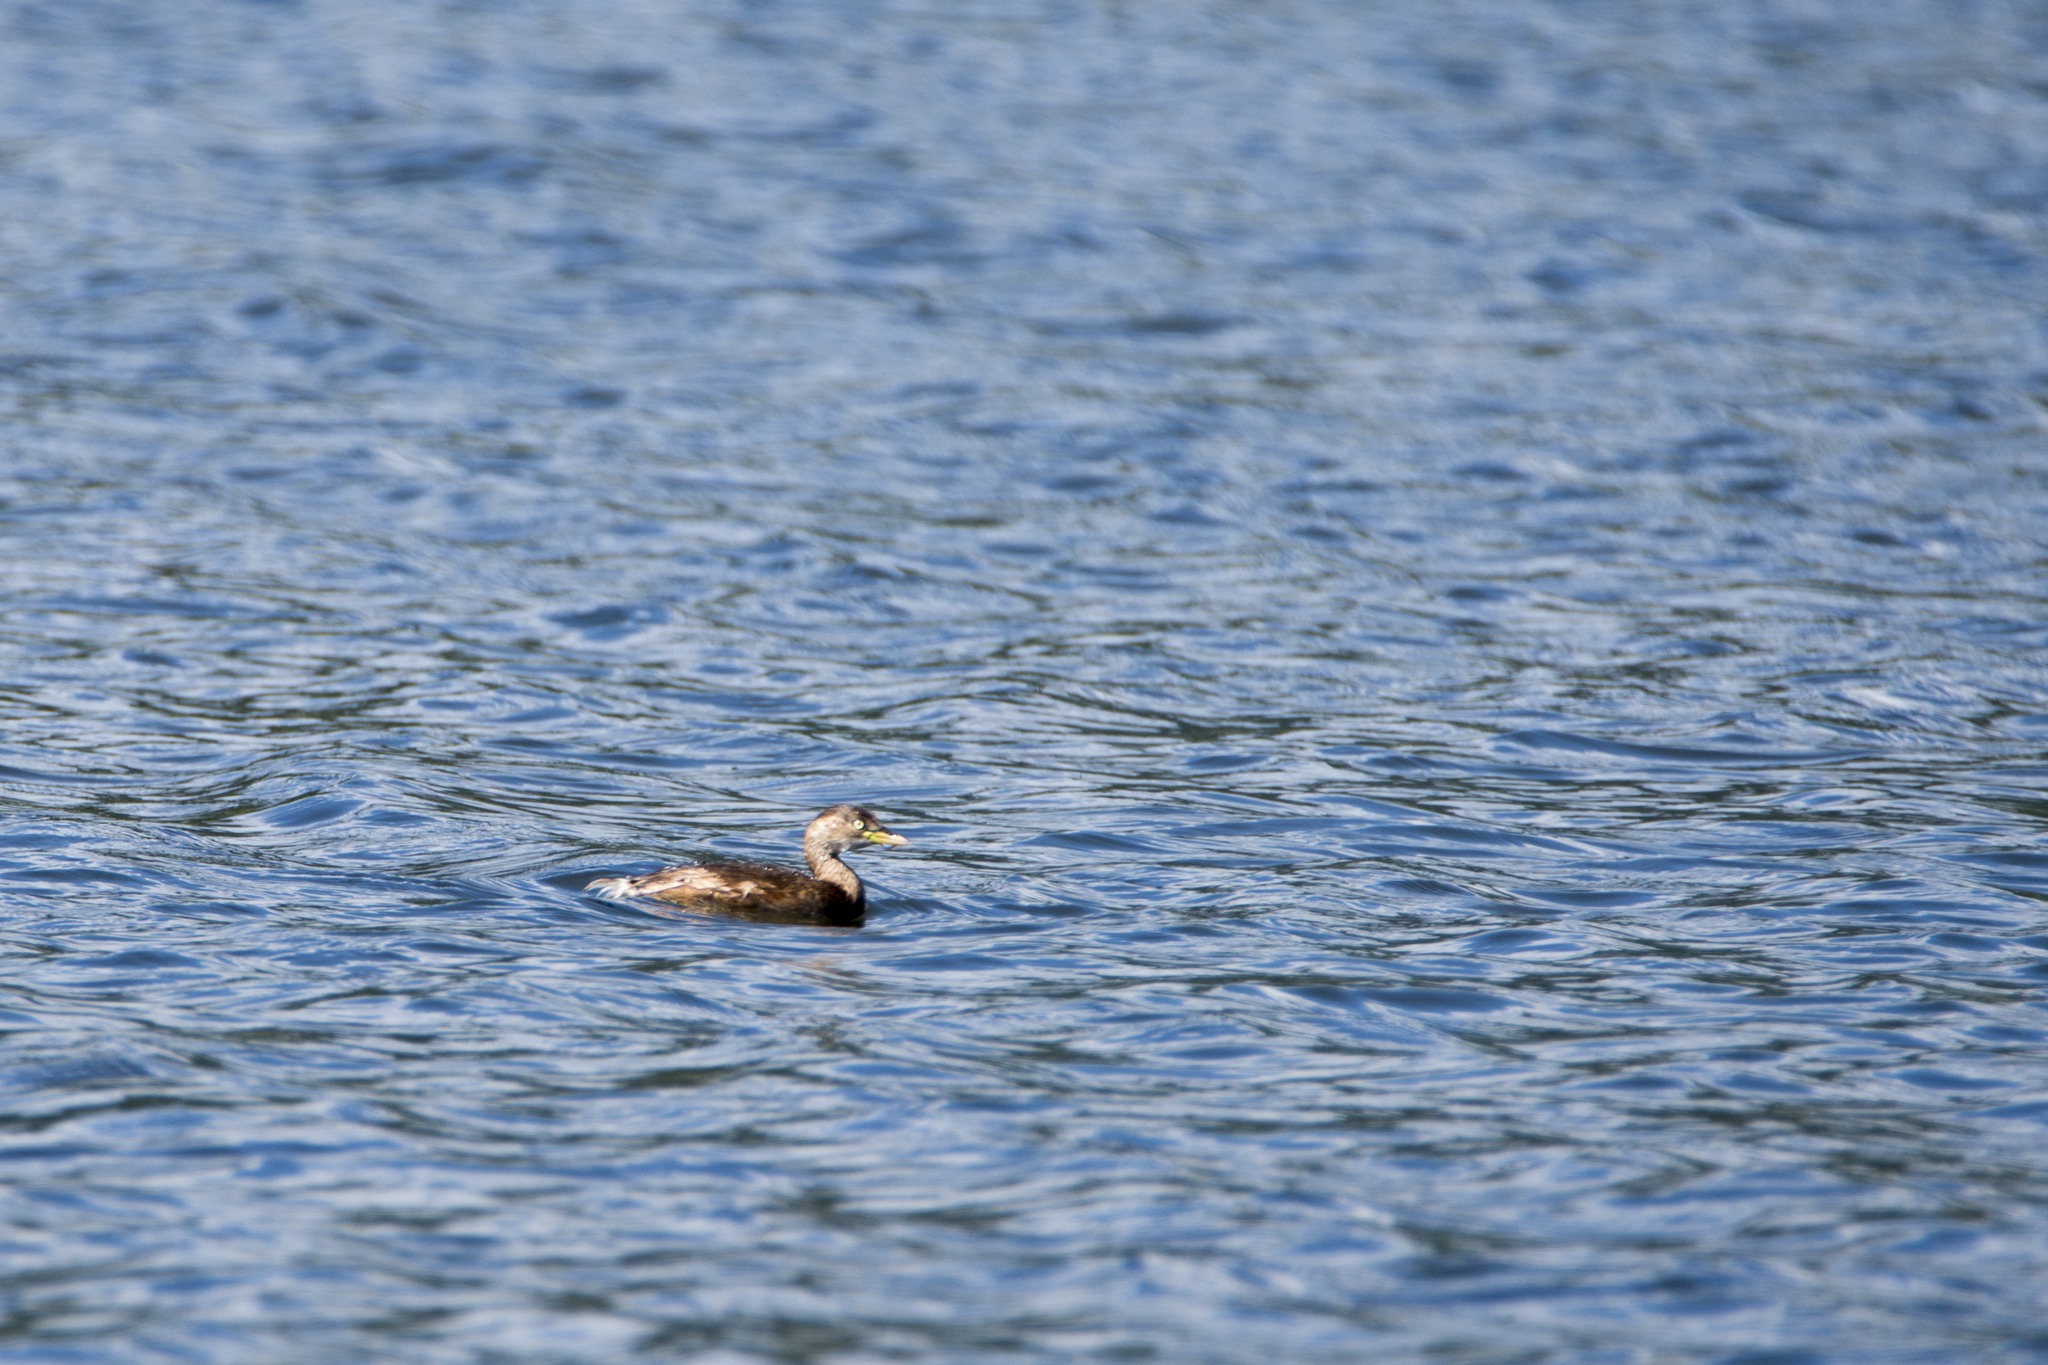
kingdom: Animalia
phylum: Chordata
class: Aves
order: Podicipediformes
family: Podicipedidae
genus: Tachybaptus
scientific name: Tachybaptus ruficollis
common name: Little grebe
